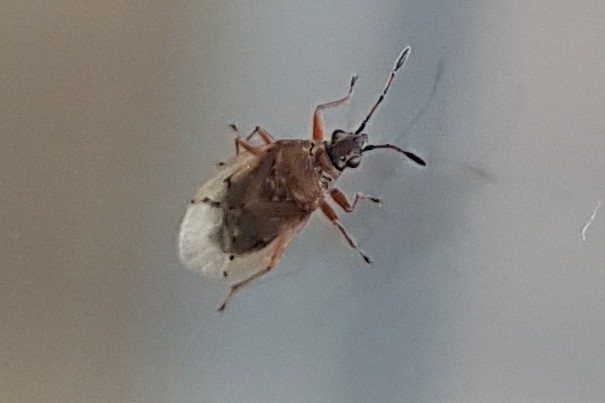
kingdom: Animalia
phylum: Arthropoda
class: Insecta
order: Hemiptera
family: Lygaeidae
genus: Kleidocerys
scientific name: Kleidocerys resedae
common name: Birch catkin bug
